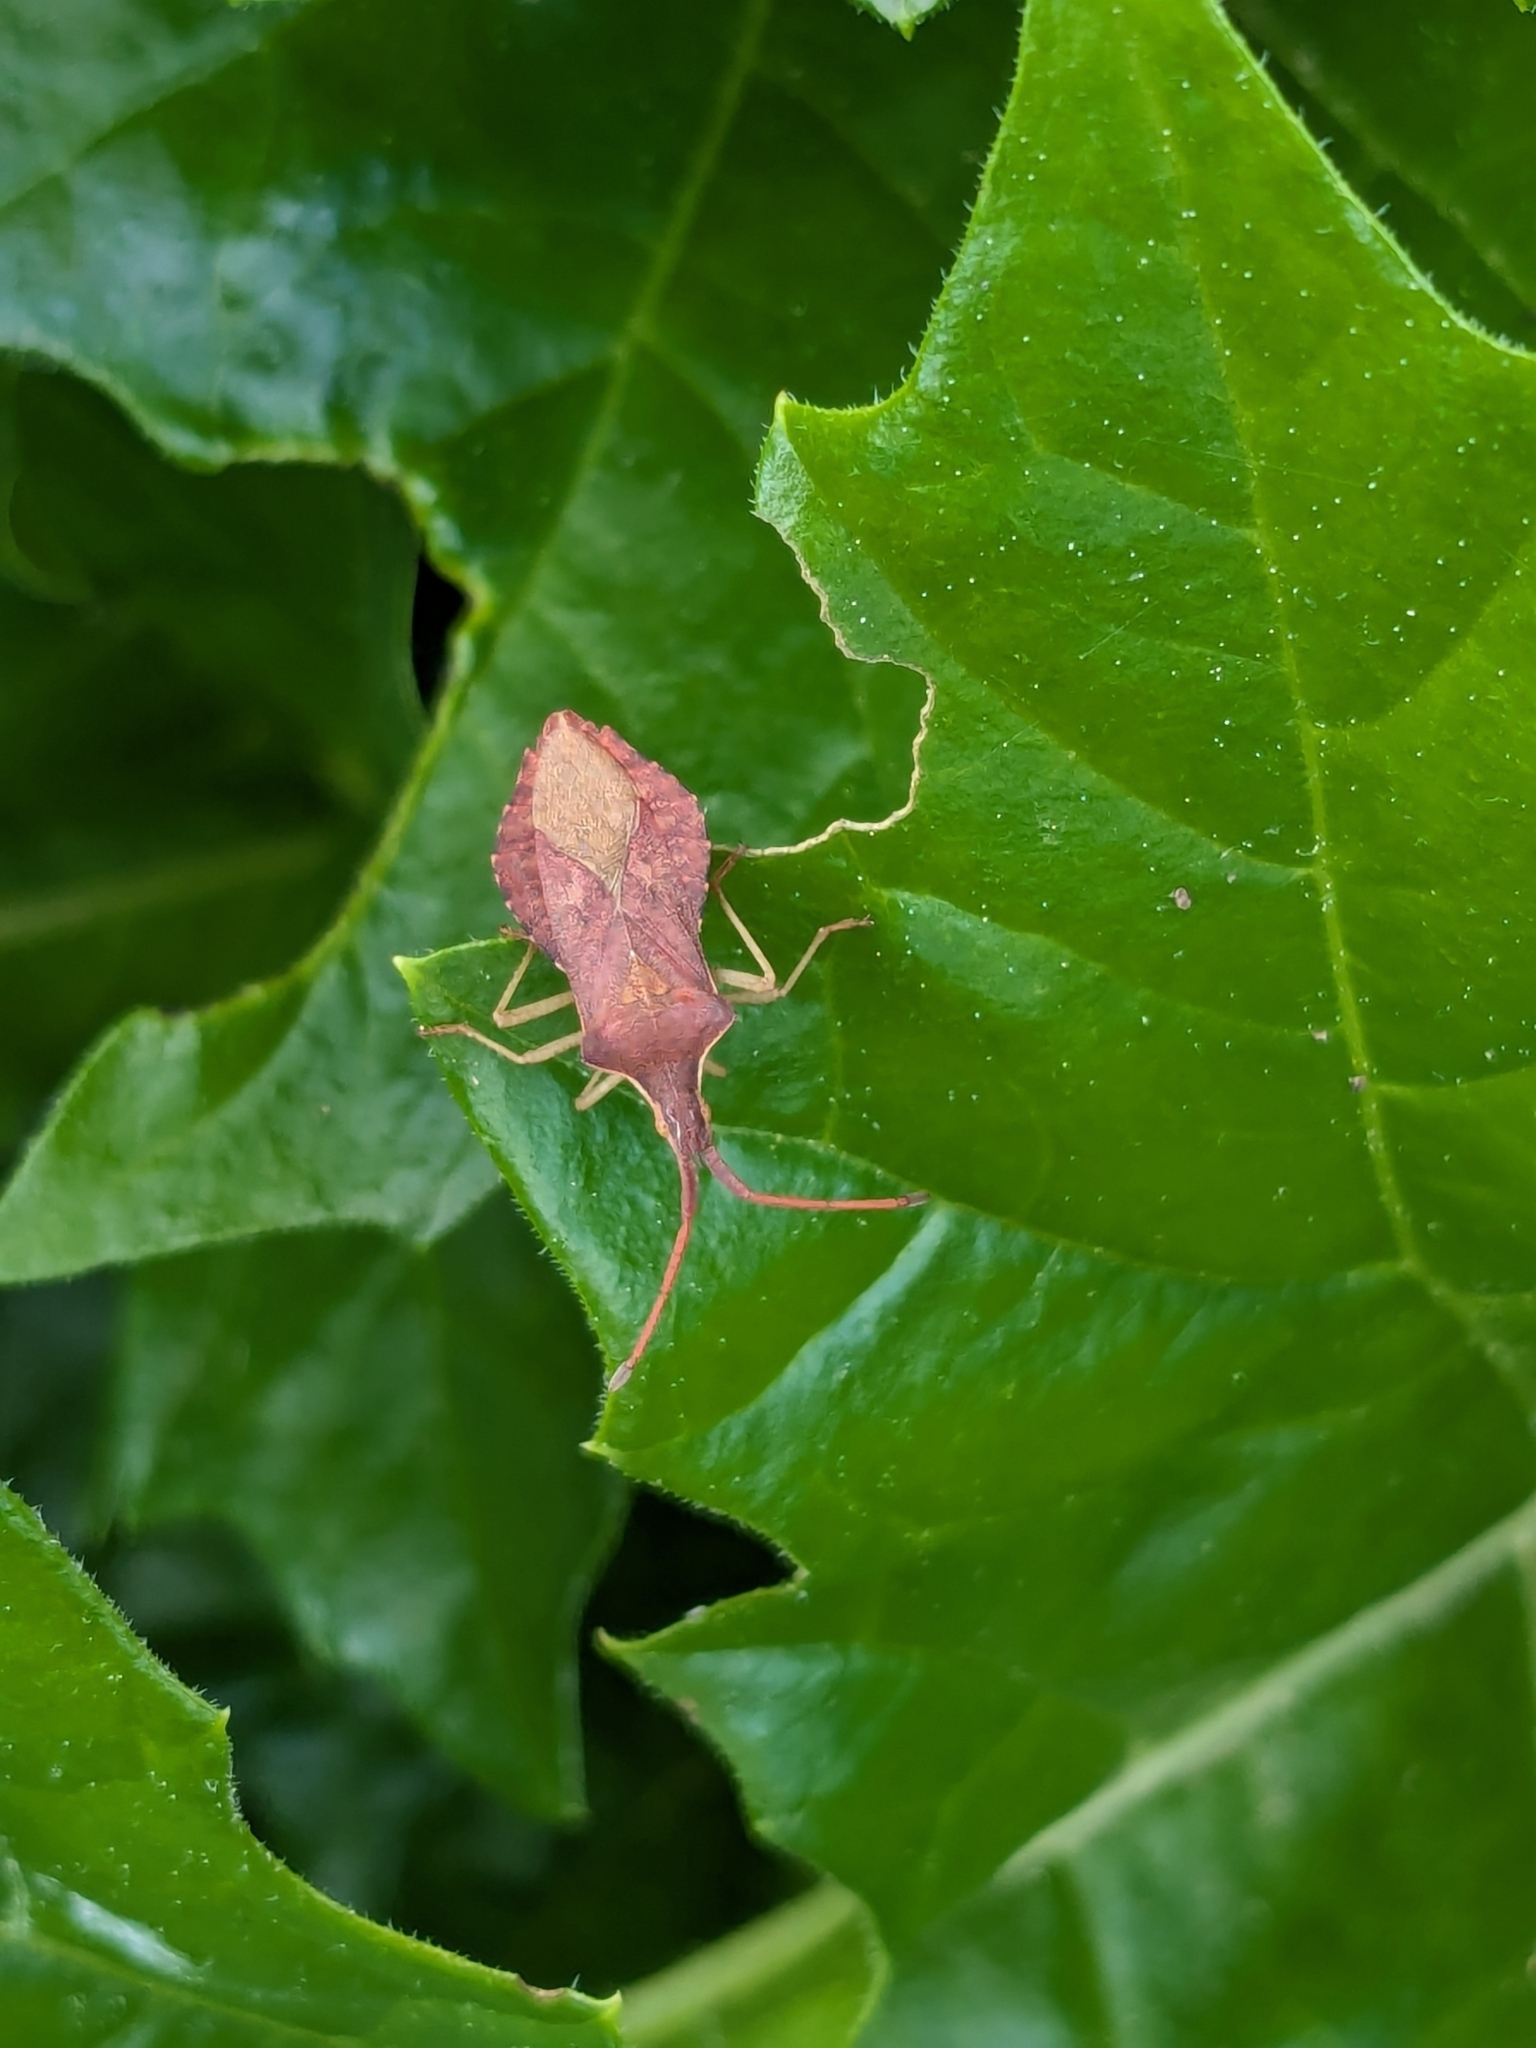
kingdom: Animalia
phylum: Arthropoda
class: Insecta
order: Hemiptera
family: Coreidae
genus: Haploprocta
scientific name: Haploprocta sulcicornis
